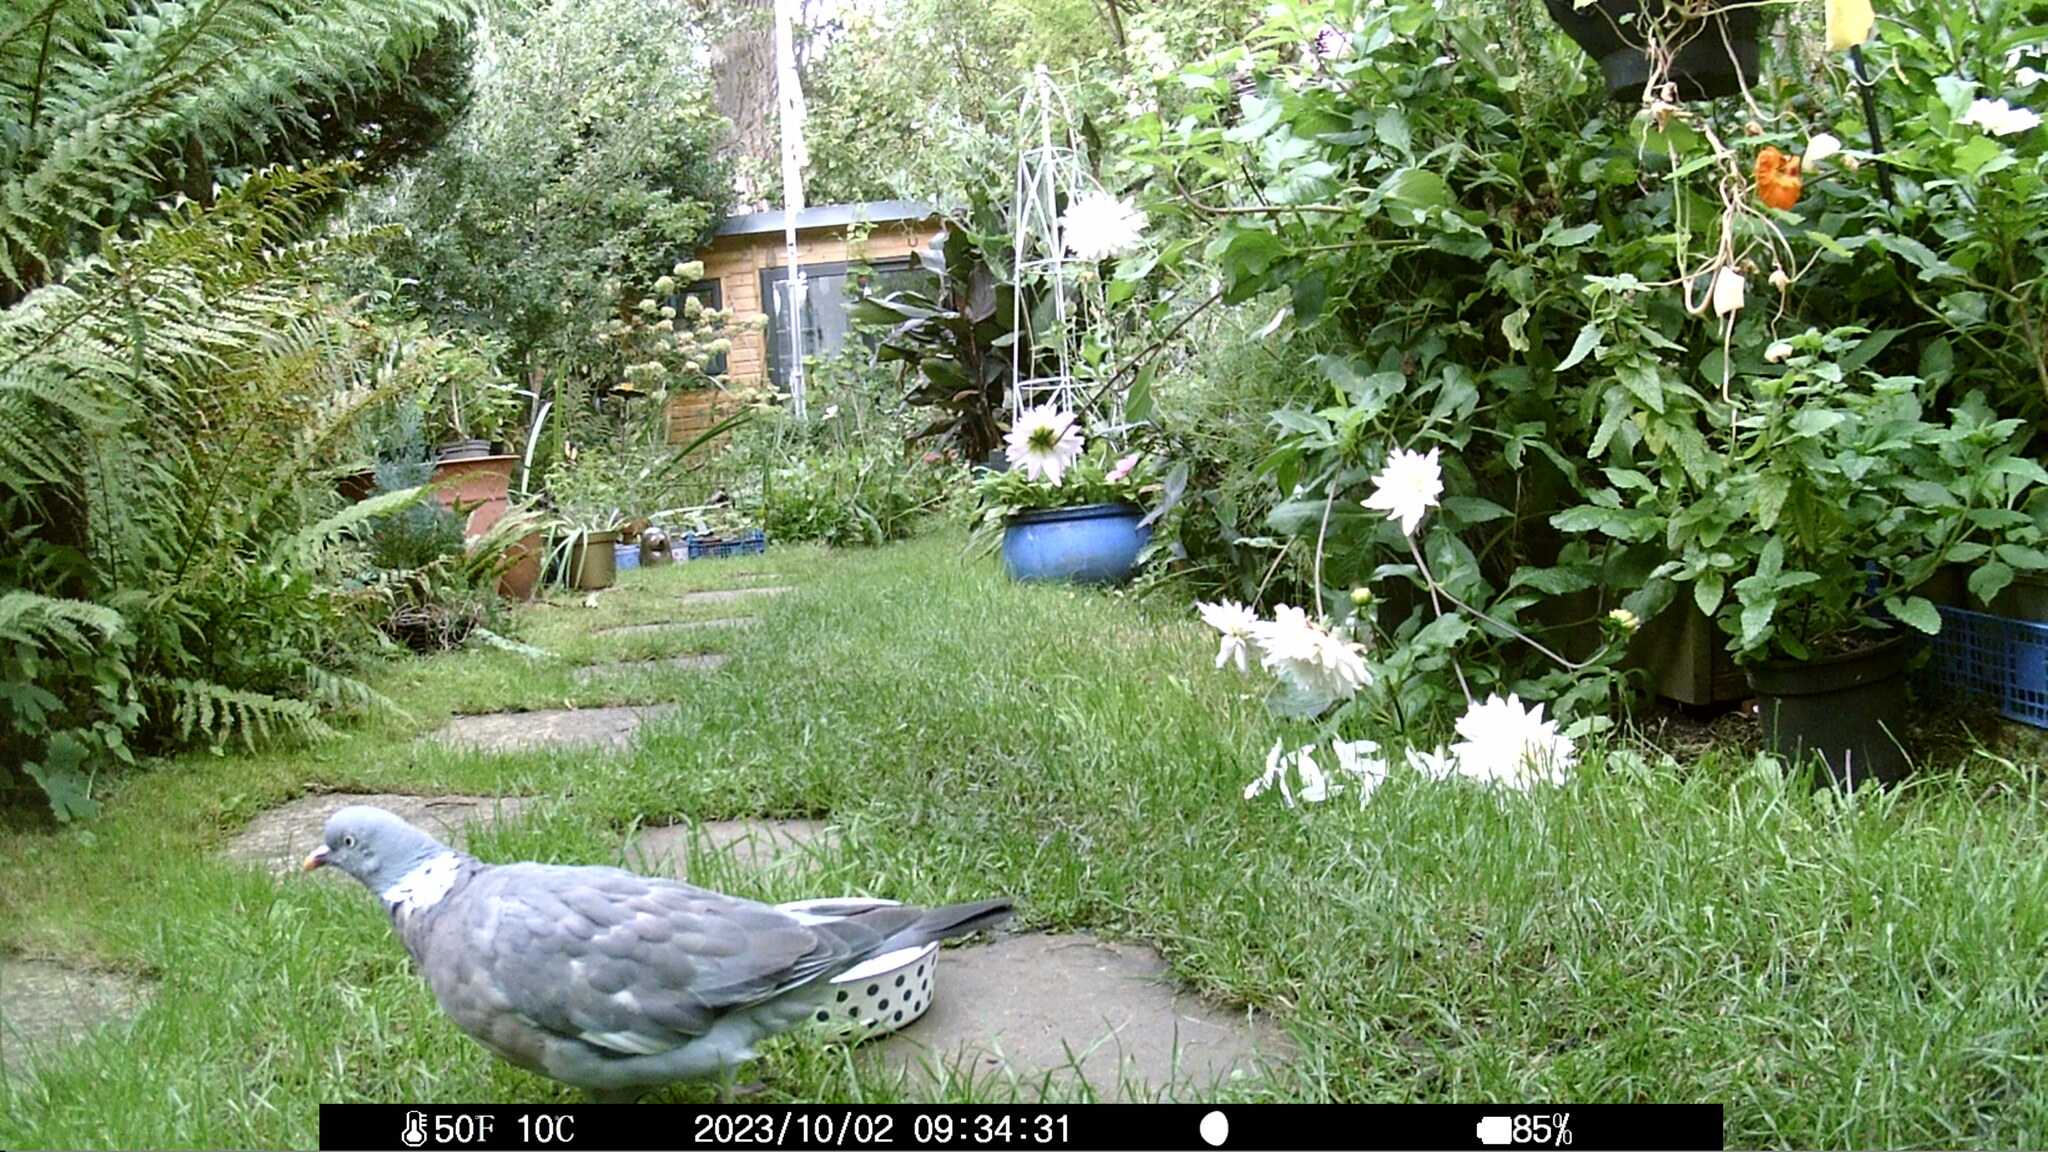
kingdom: Animalia
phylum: Chordata
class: Aves
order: Columbiformes
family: Columbidae
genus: Columba
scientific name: Columba palumbus
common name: Common wood pigeon
